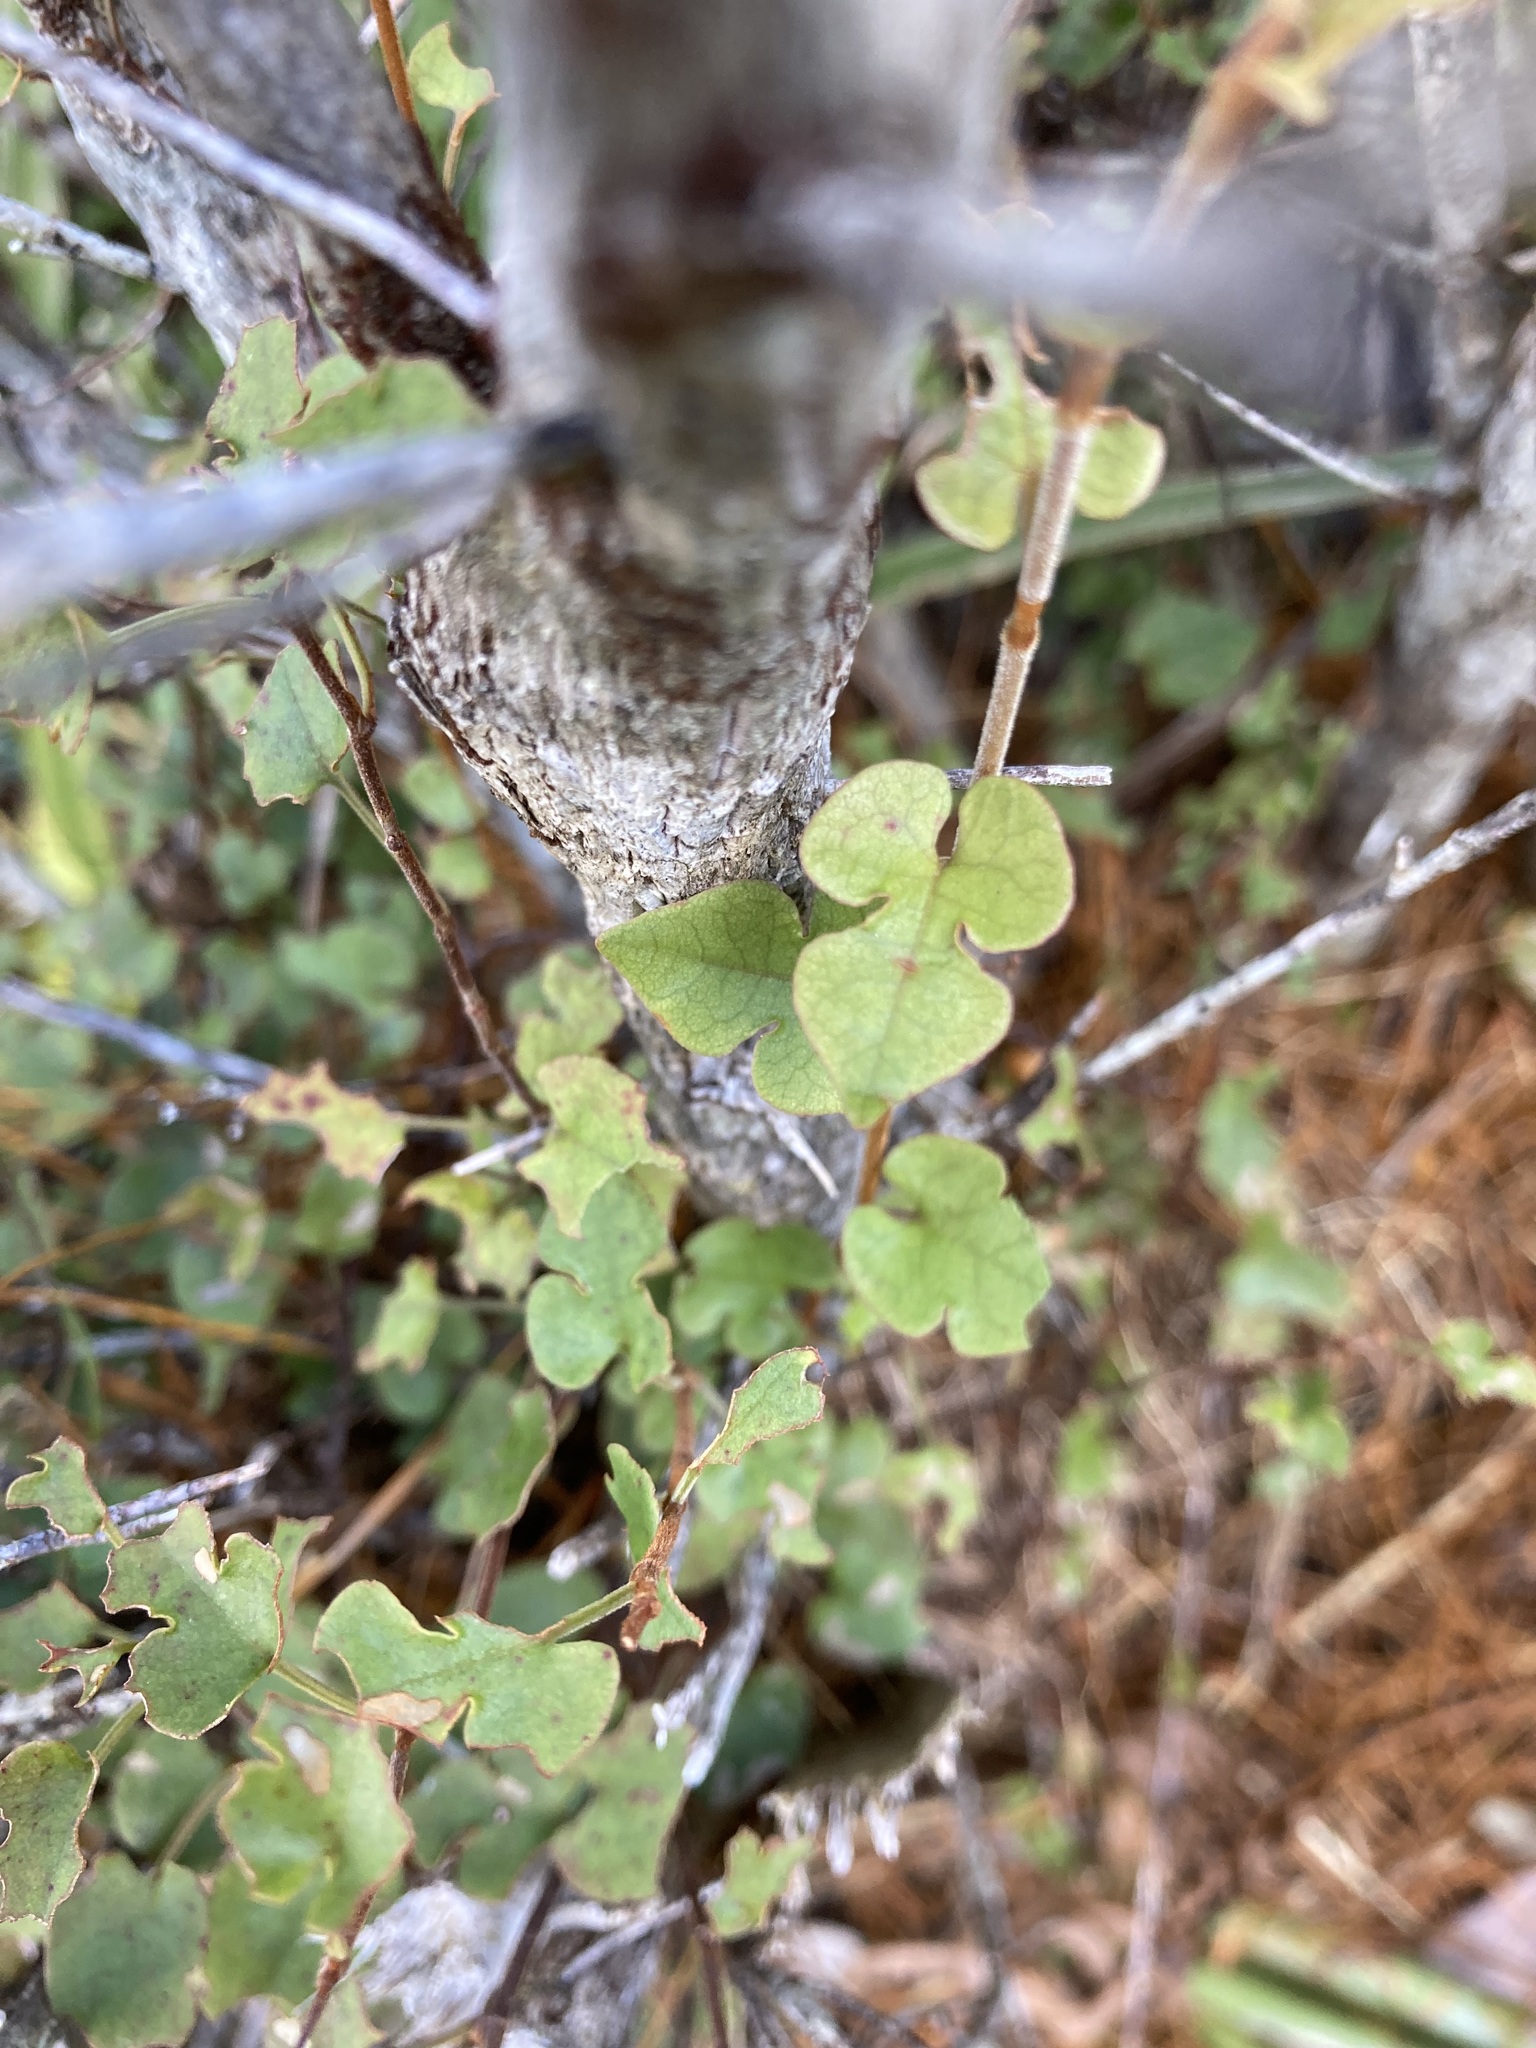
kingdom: Plantae
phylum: Tracheophyta
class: Magnoliopsida
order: Caryophyllales
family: Polygonaceae
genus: Muehlenbeckia
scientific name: Muehlenbeckia australis
